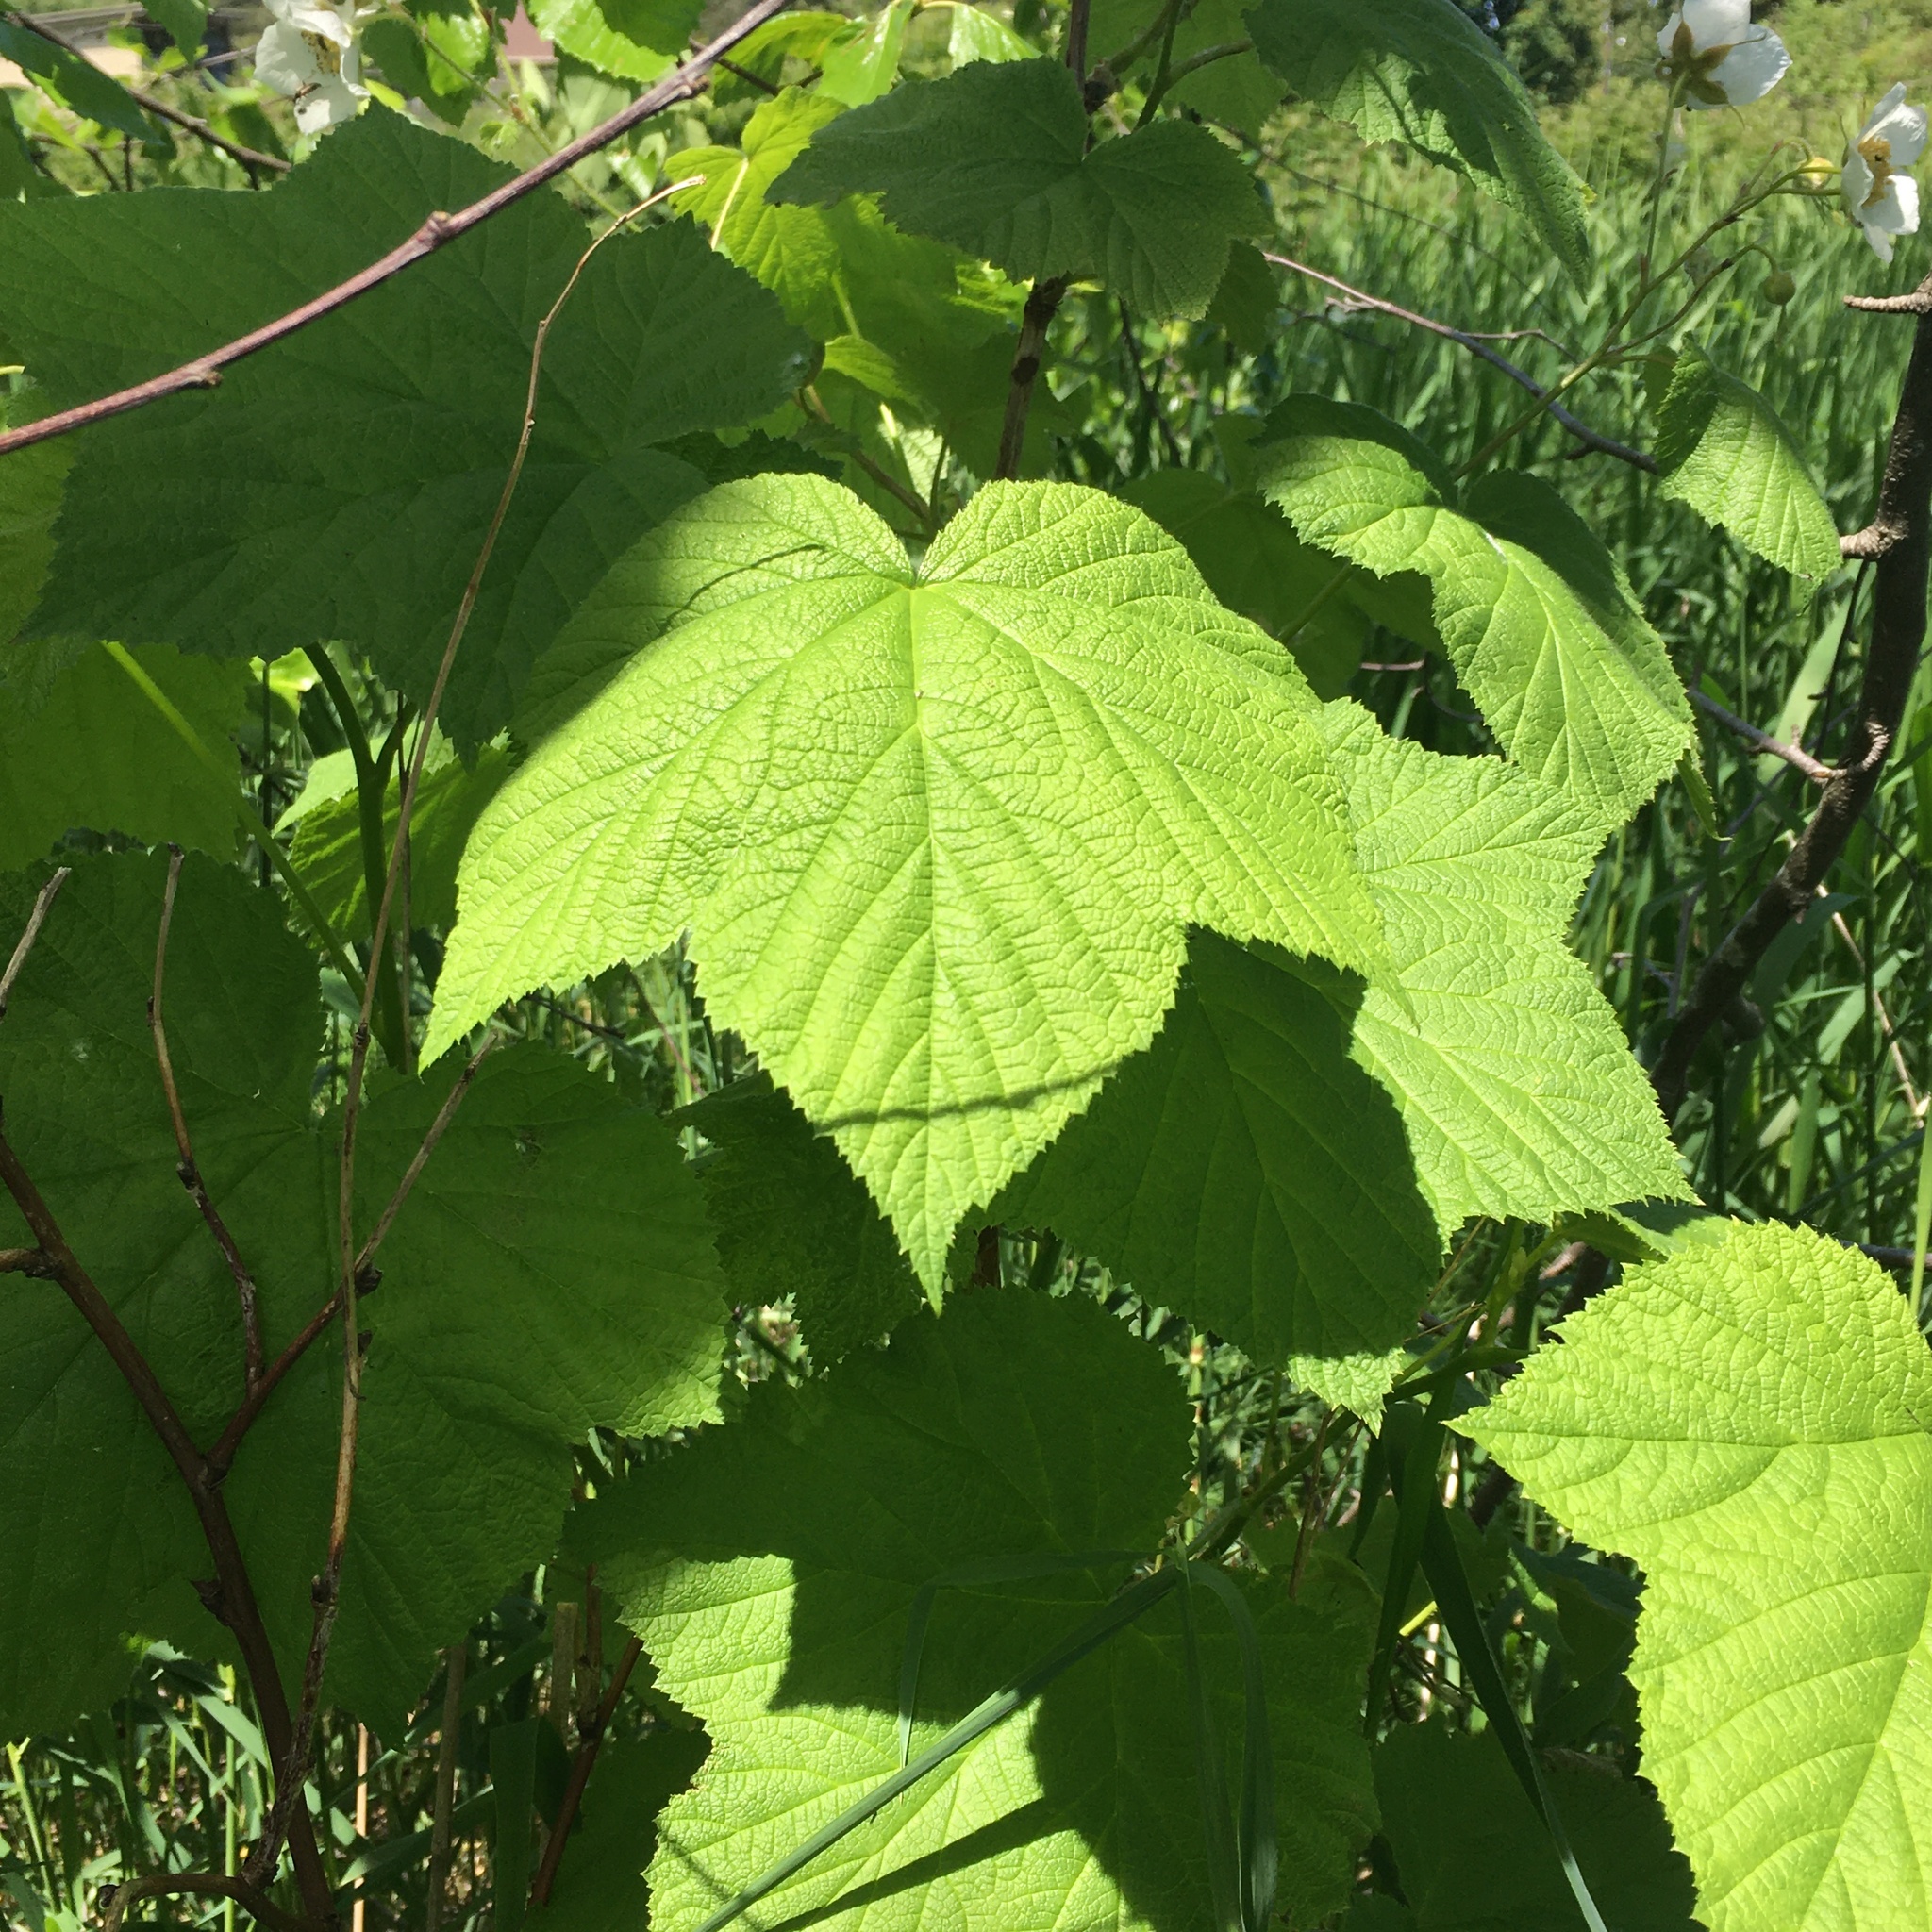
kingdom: Plantae
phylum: Tracheophyta
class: Magnoliopsida
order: Rosales
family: Rosaceae
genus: Rubus
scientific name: Rubus parviflorus
